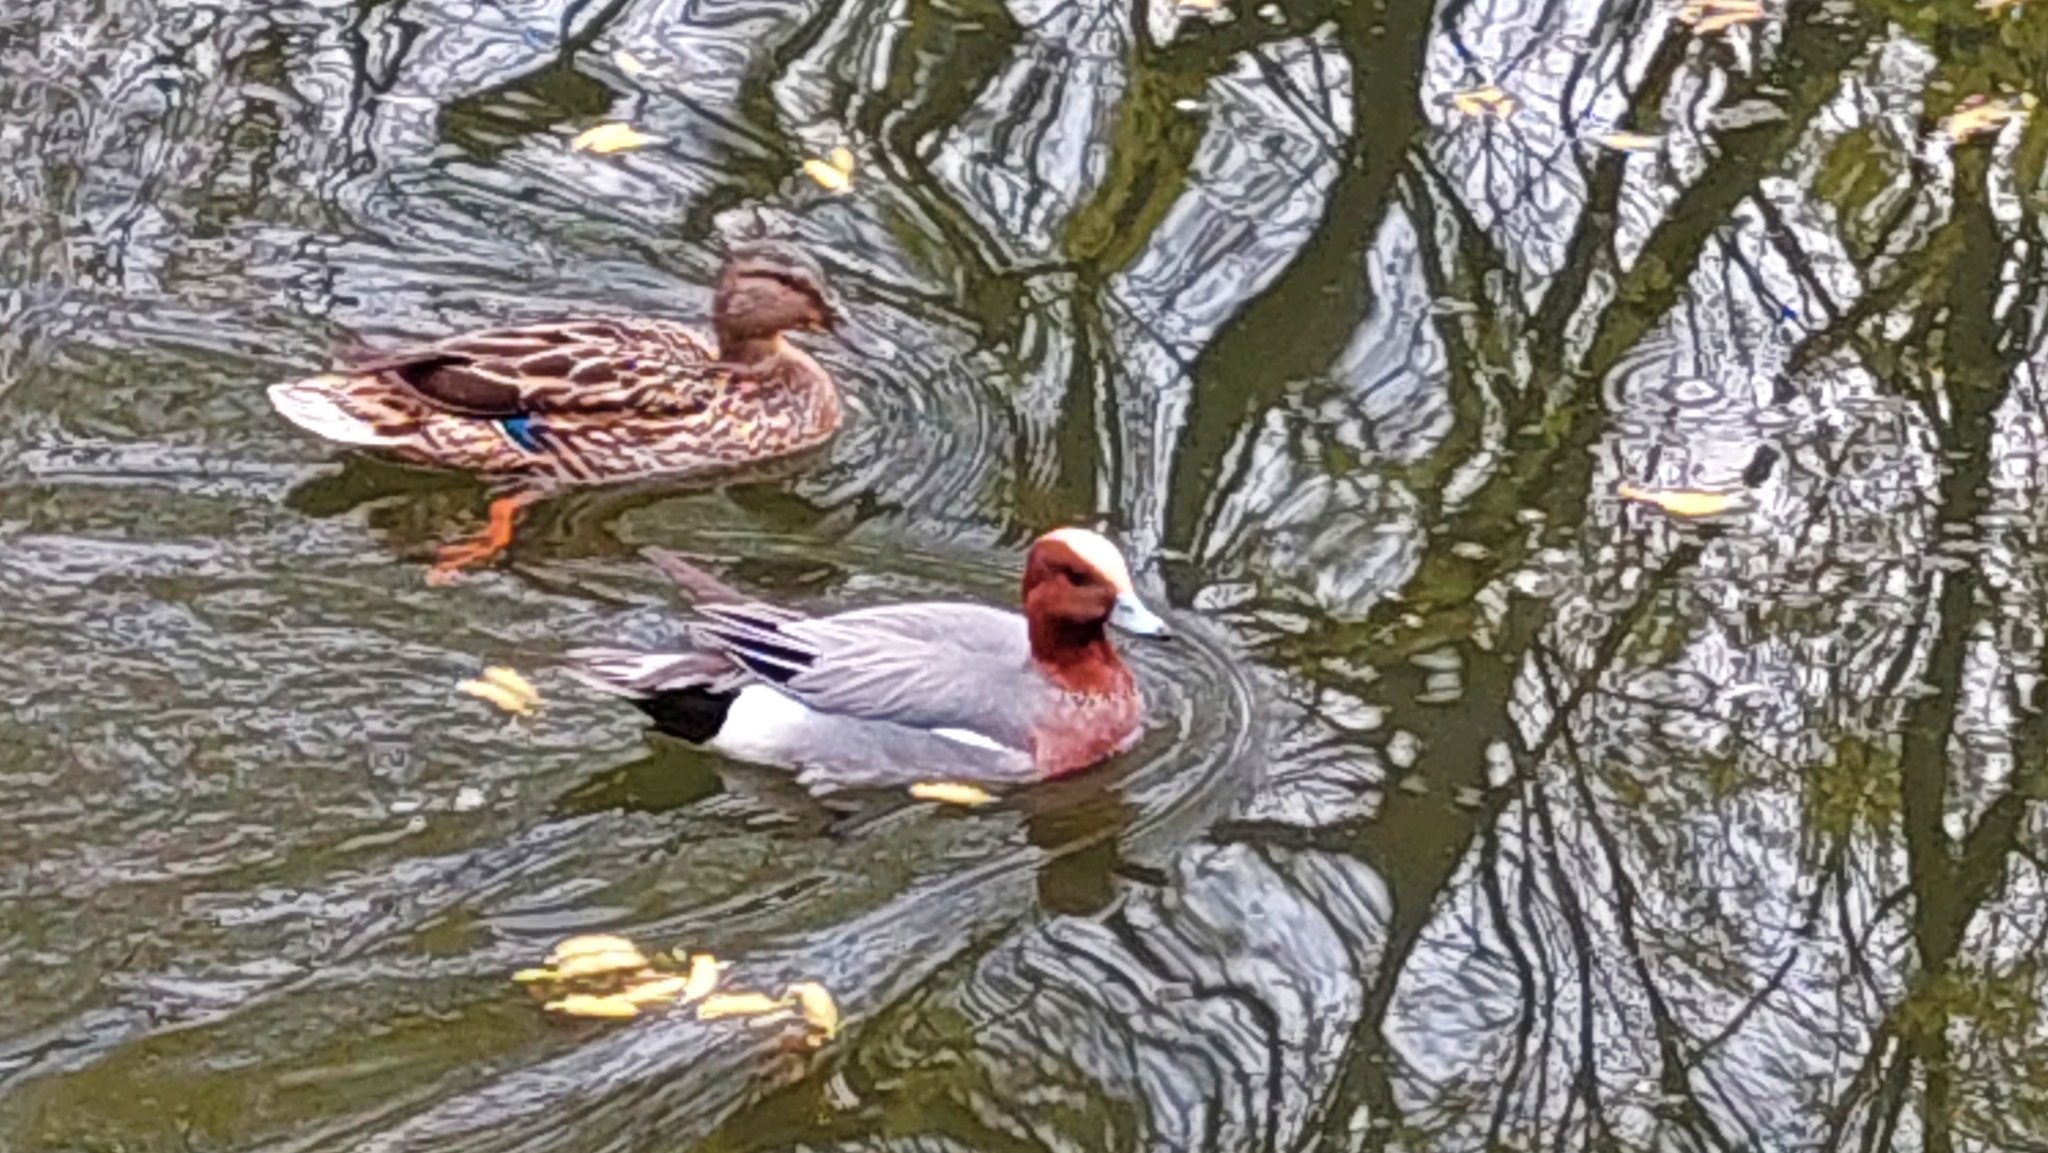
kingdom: Animalia
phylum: Chordata
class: Aves
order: Anseriformes
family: Anatidae
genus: Mareca
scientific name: Mareca penelope
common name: Eurasian wigeon
